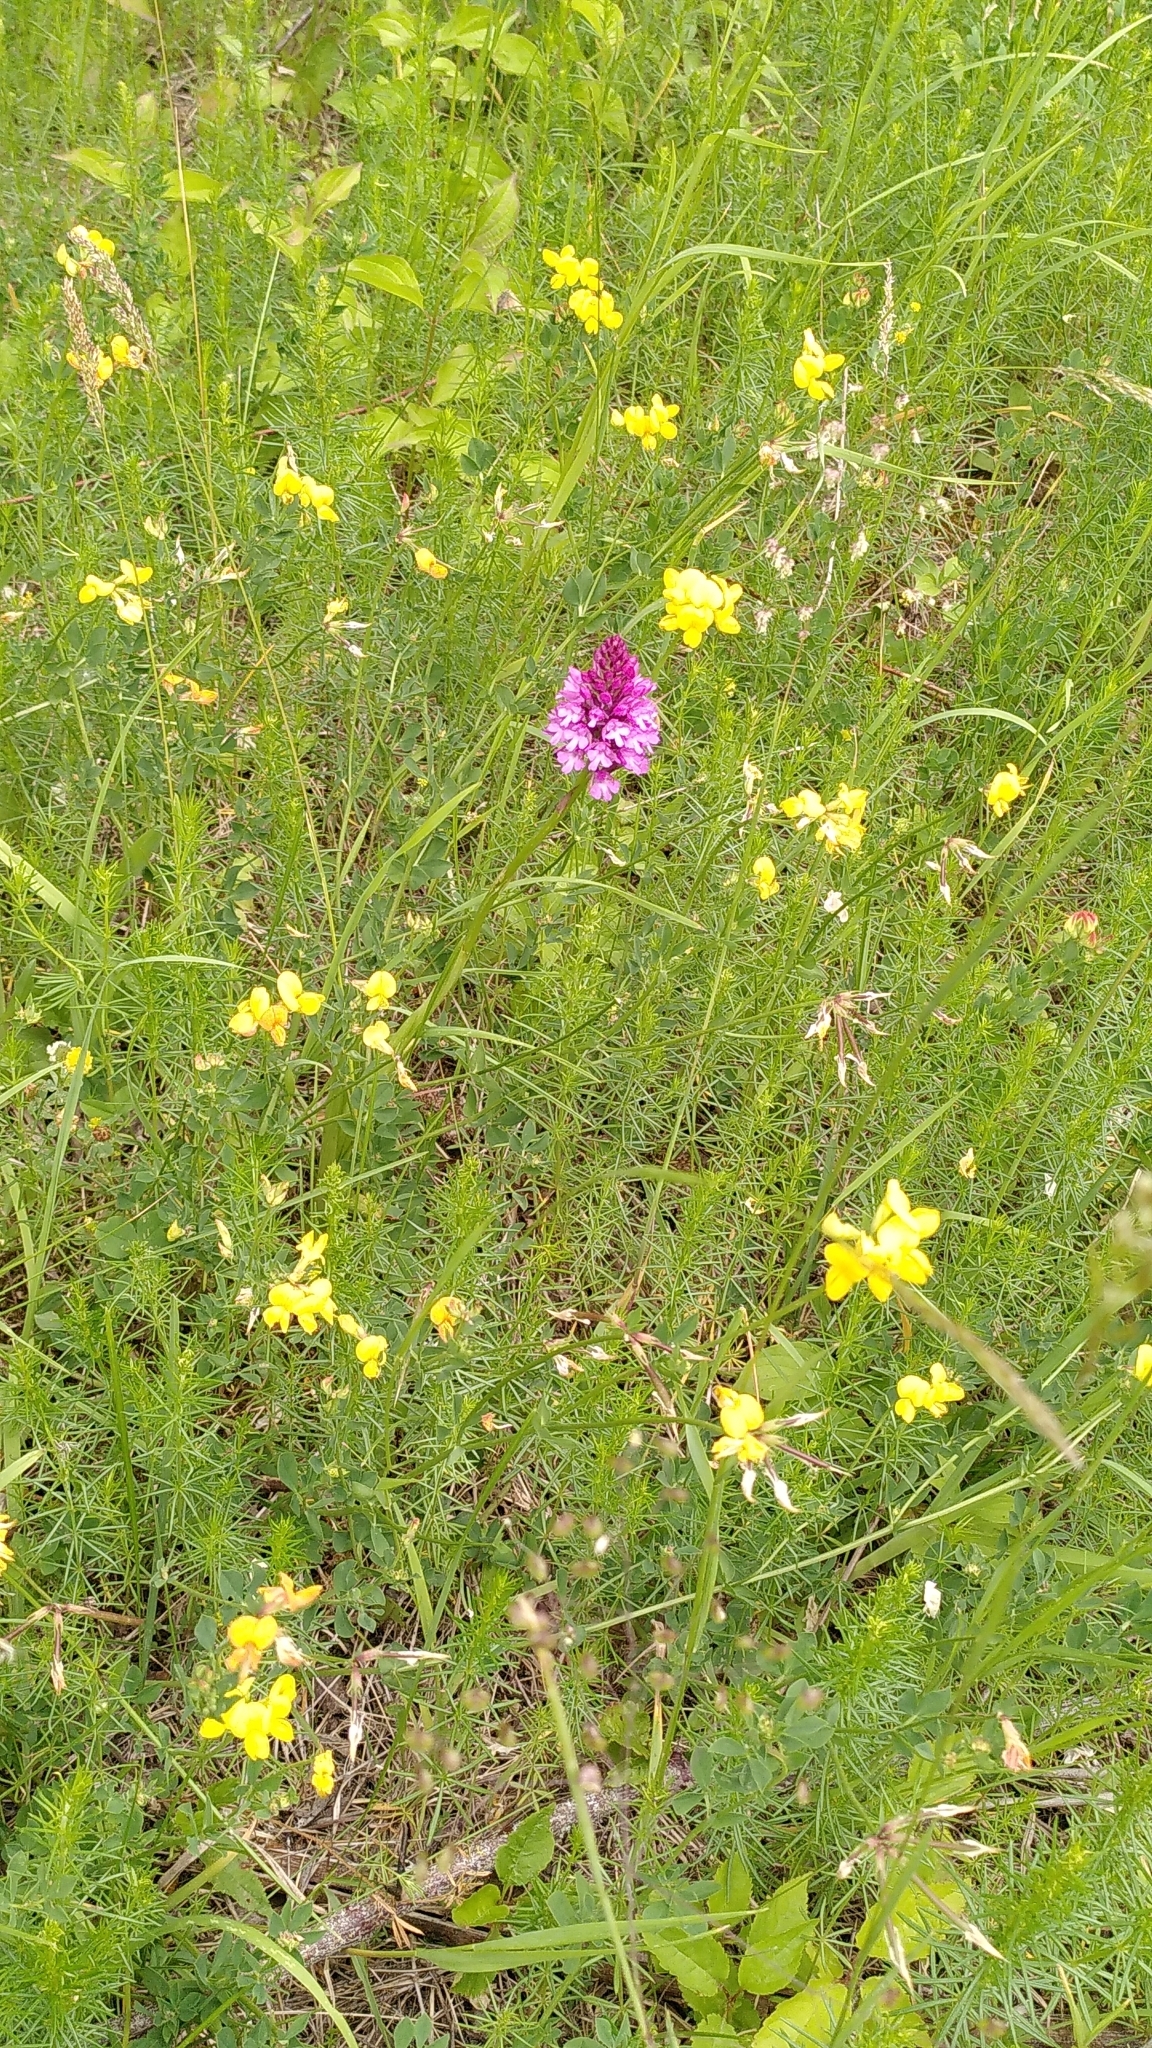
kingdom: Plantae
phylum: Tracheophyta
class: Liliopsida
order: Asparagales
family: Orchidaceae
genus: Anacamptis
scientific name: Anacamptis pyramidalis
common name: Pyramidal orchid
